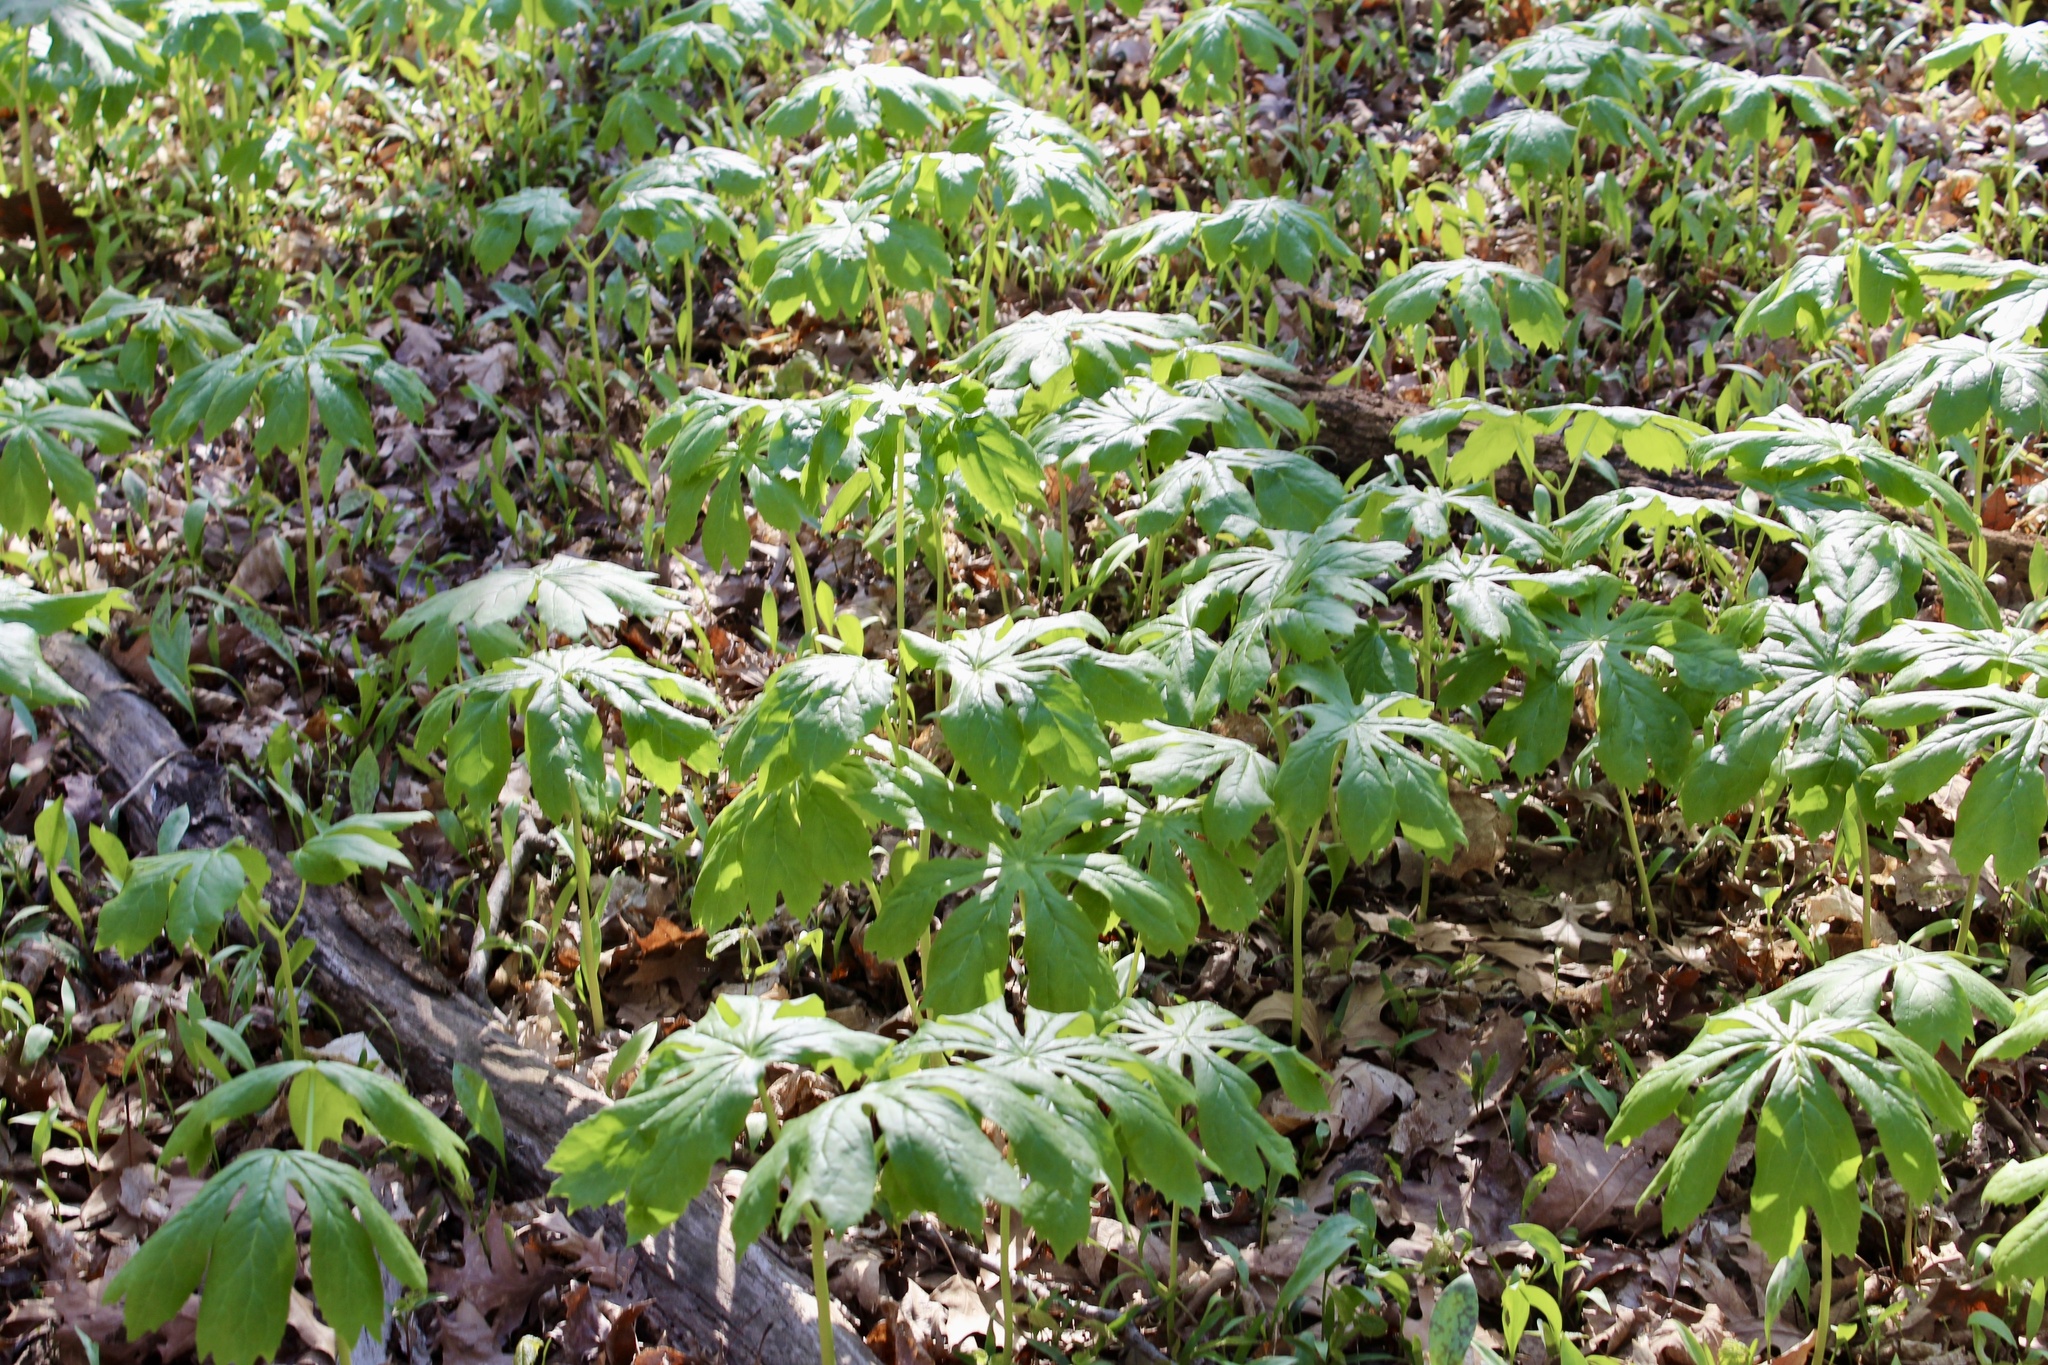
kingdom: Plantae
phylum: Tracheophyta
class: Magnoliopsida
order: Ranunculales
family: Berberidaceae
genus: Podophyllum
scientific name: Podophyllum peltatum
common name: Wild mandrake
